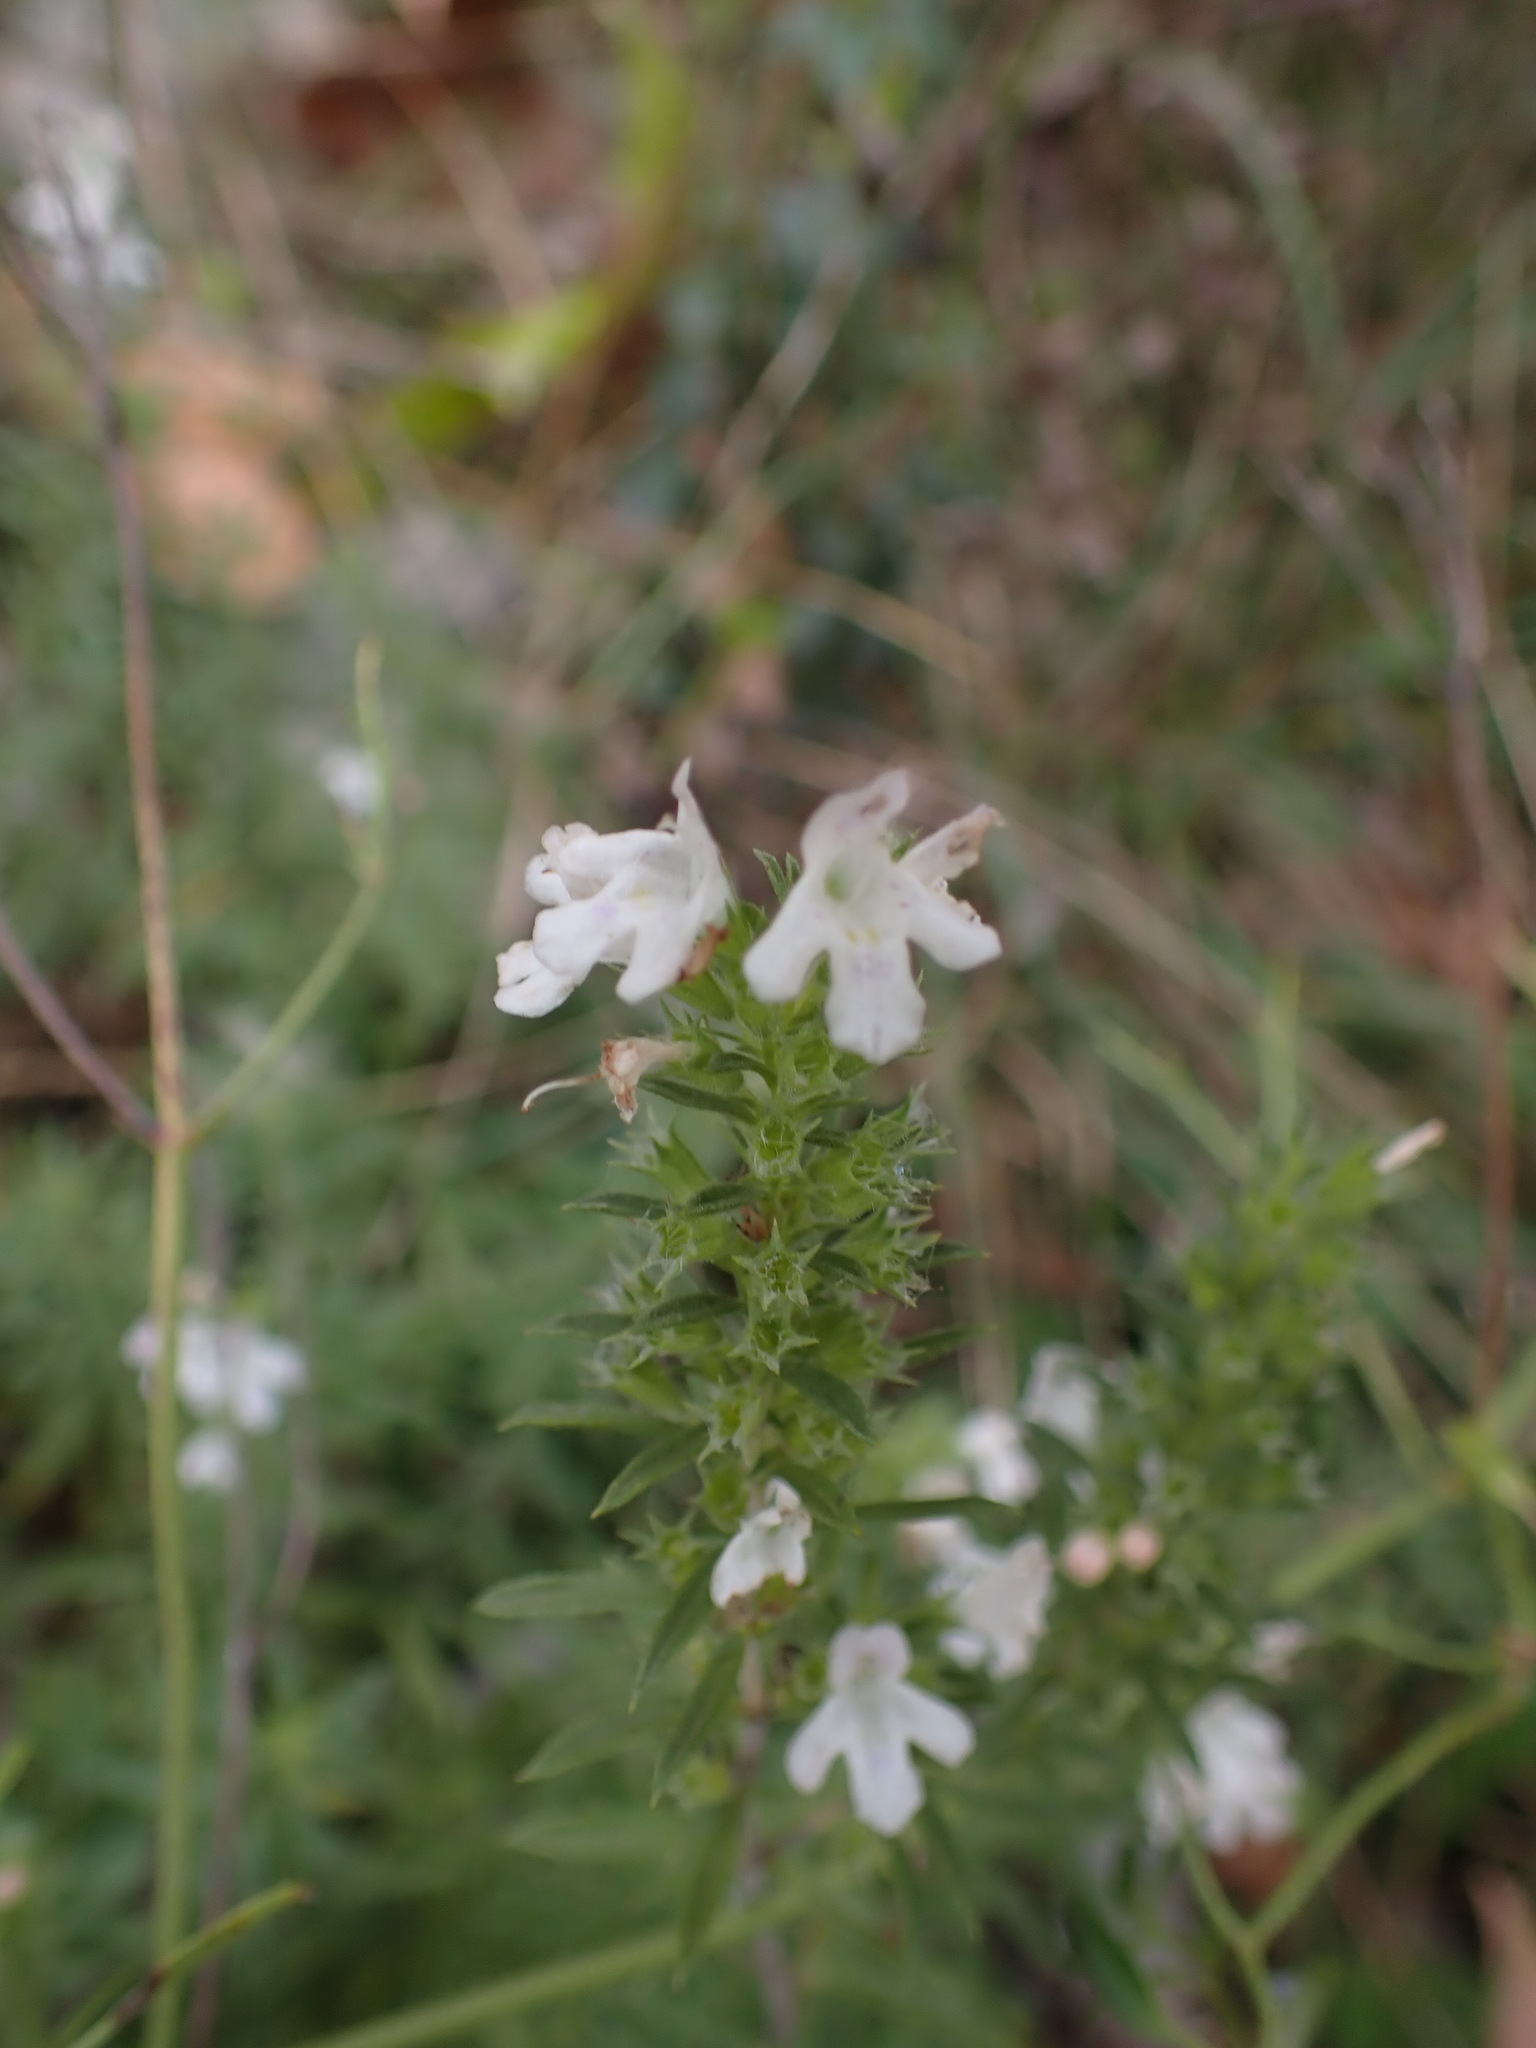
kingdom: Plantae
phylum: Tracheophyta
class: Magnoliopsida
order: Lamiales
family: Lamiaceae
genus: Satureja
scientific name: Satureja montana
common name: Winter savory
